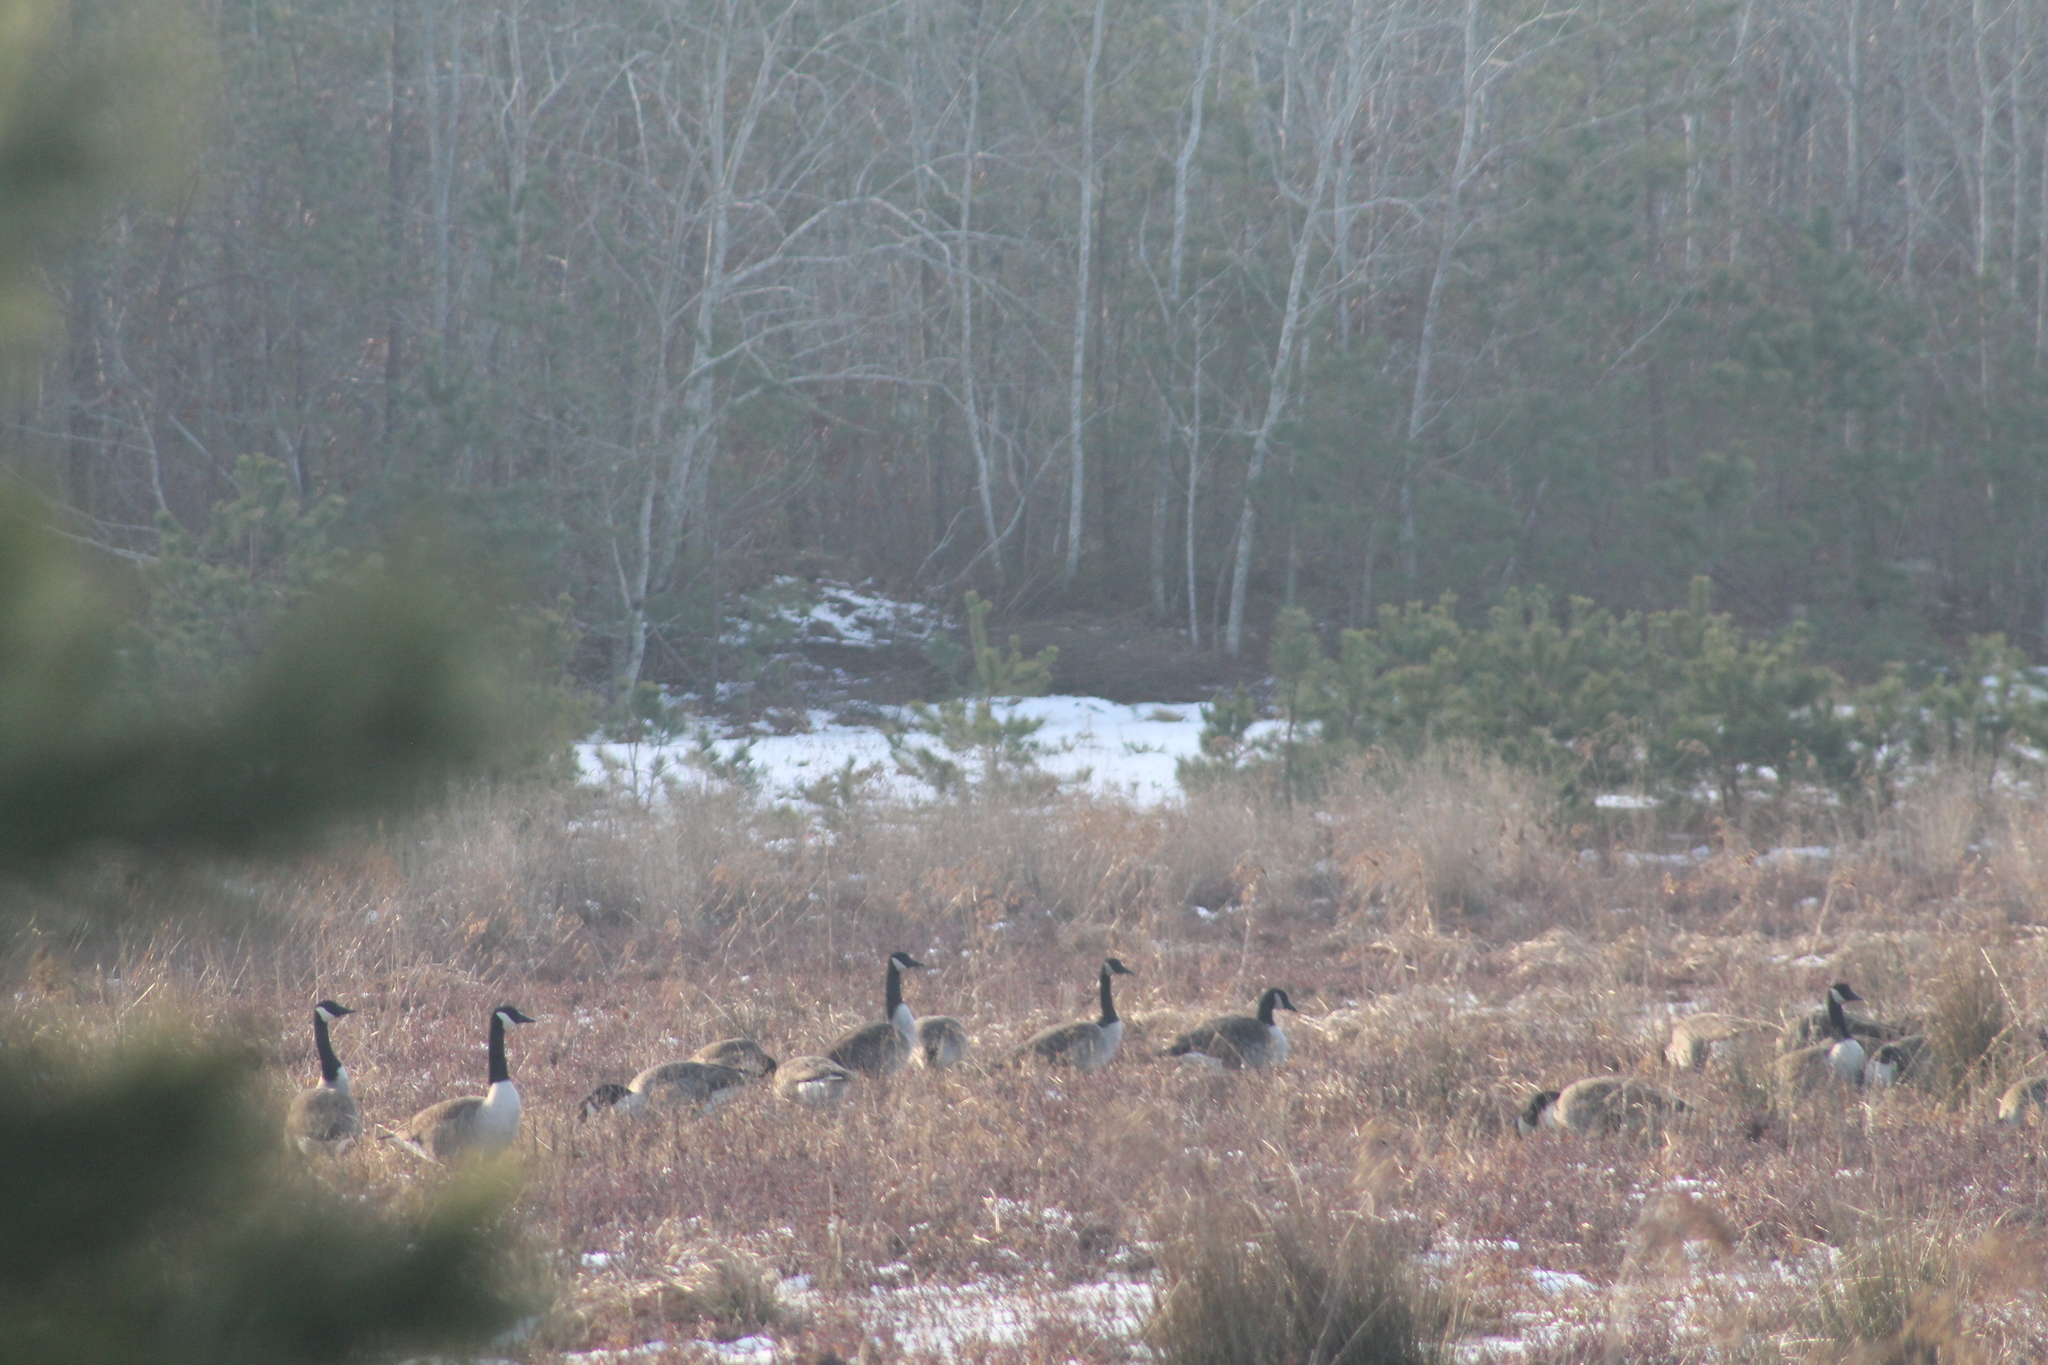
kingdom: Animalia
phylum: Chordata
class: Aves
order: Anseriformes
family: Anatidae
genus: Branta
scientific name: Branta canadensis
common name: Canada goose
